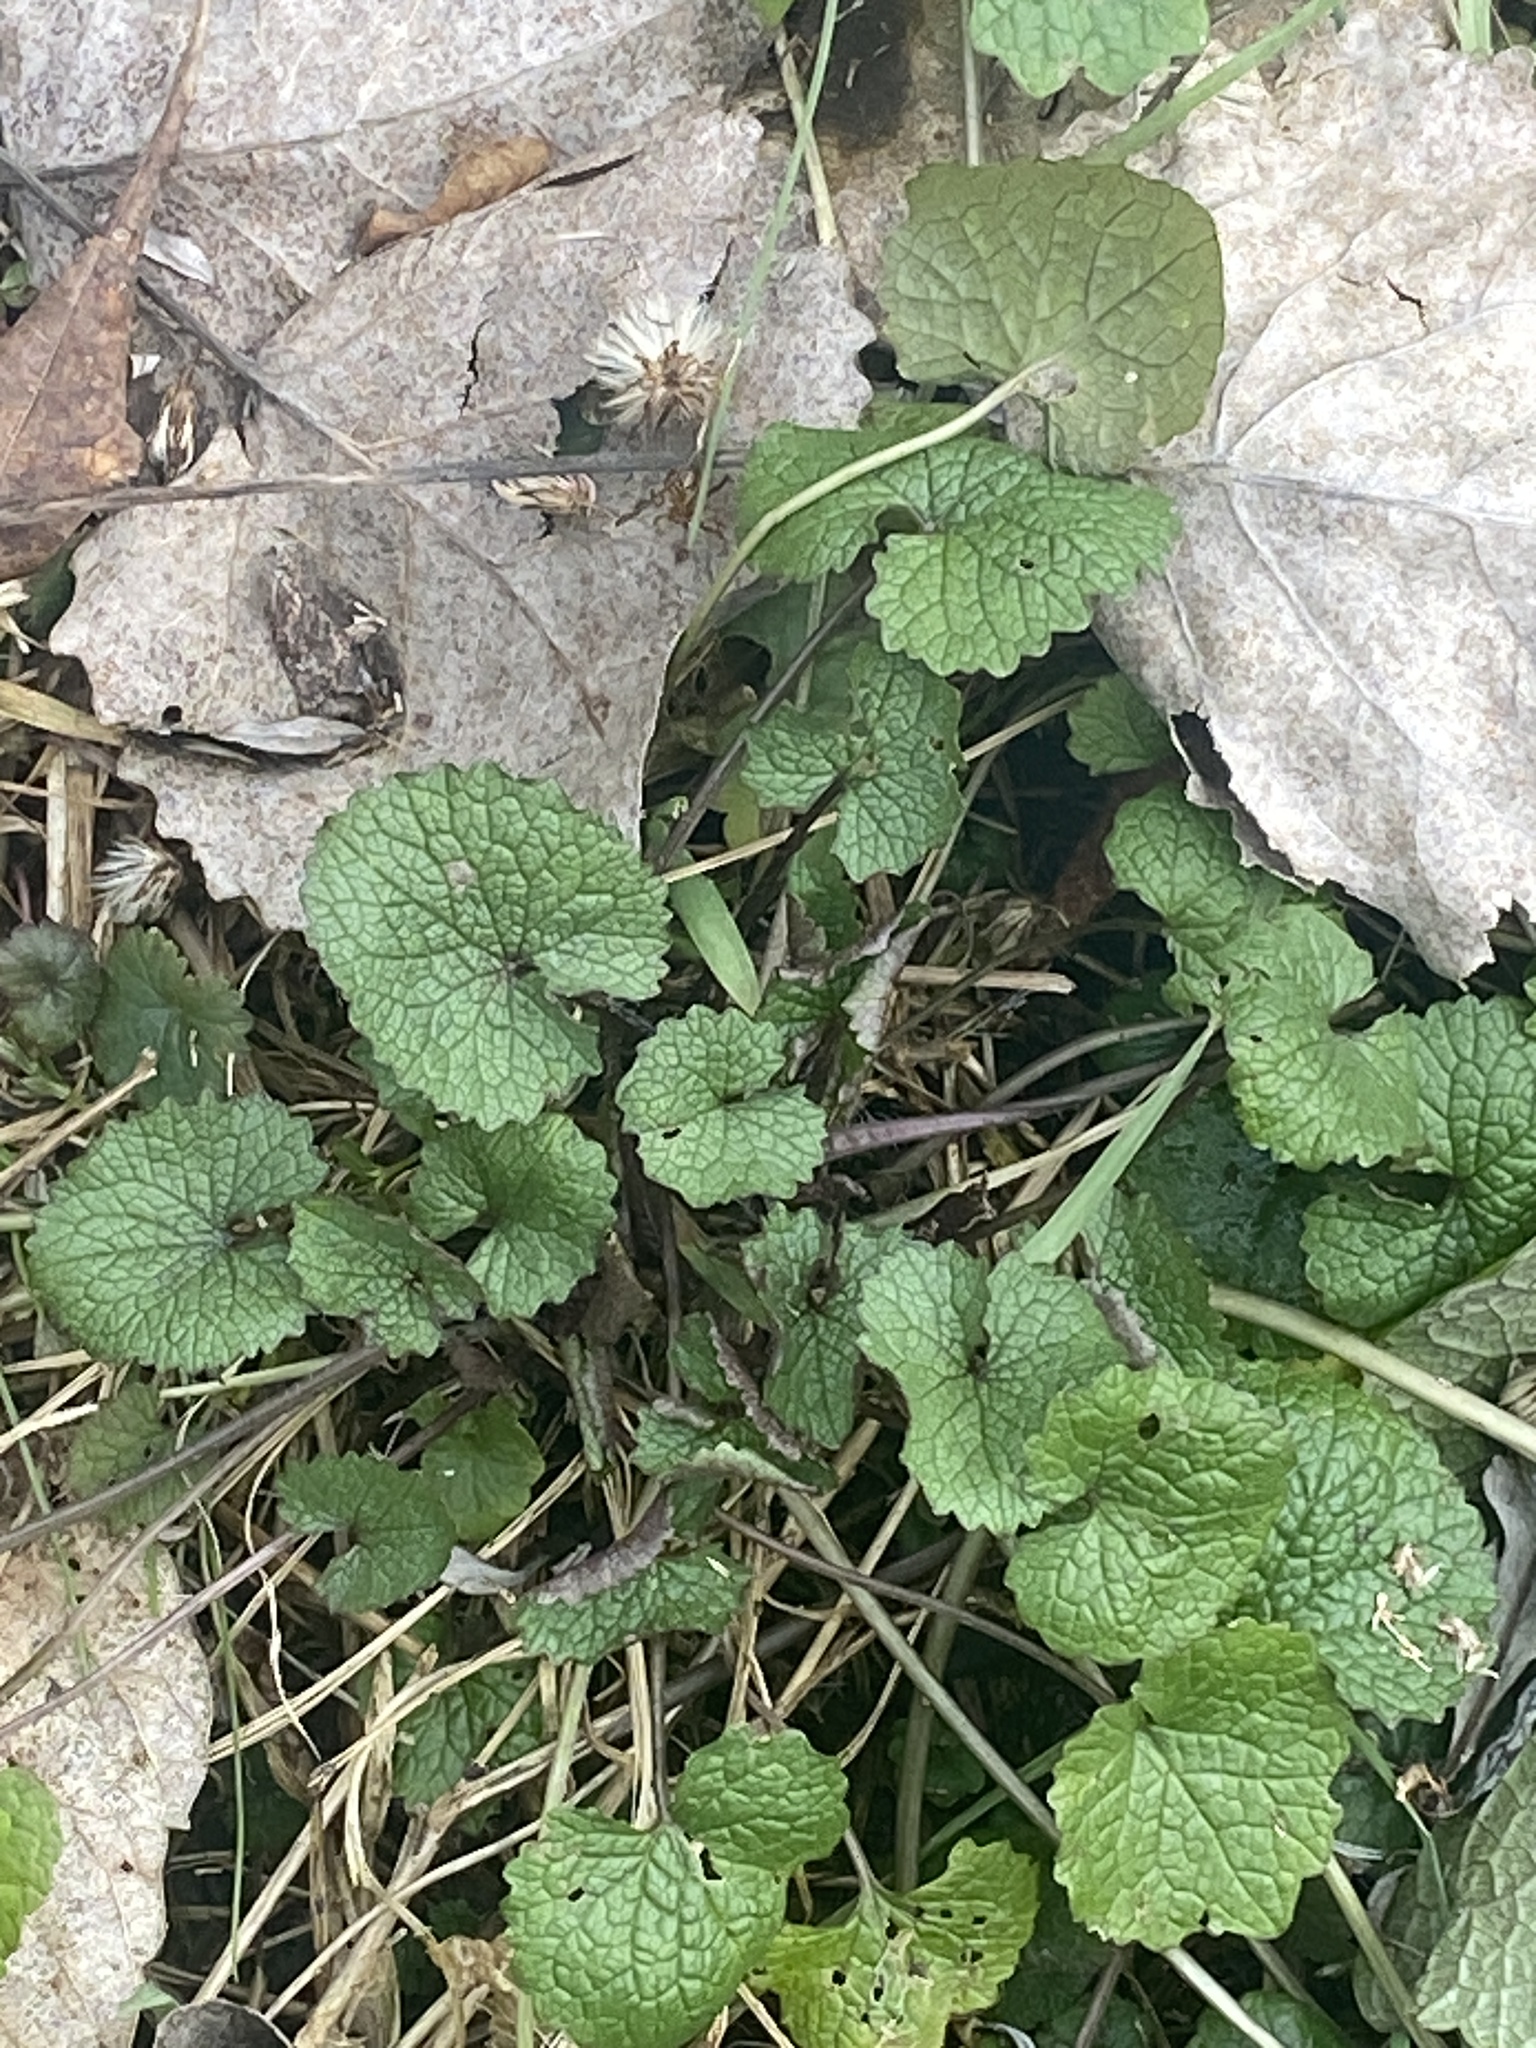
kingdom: Plantae
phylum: Tracheophyta
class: Magnoliopsida
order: Brassicales
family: Brassicaceae
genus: Alliaria
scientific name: Alliaria petiolata
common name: Garlic mustard
